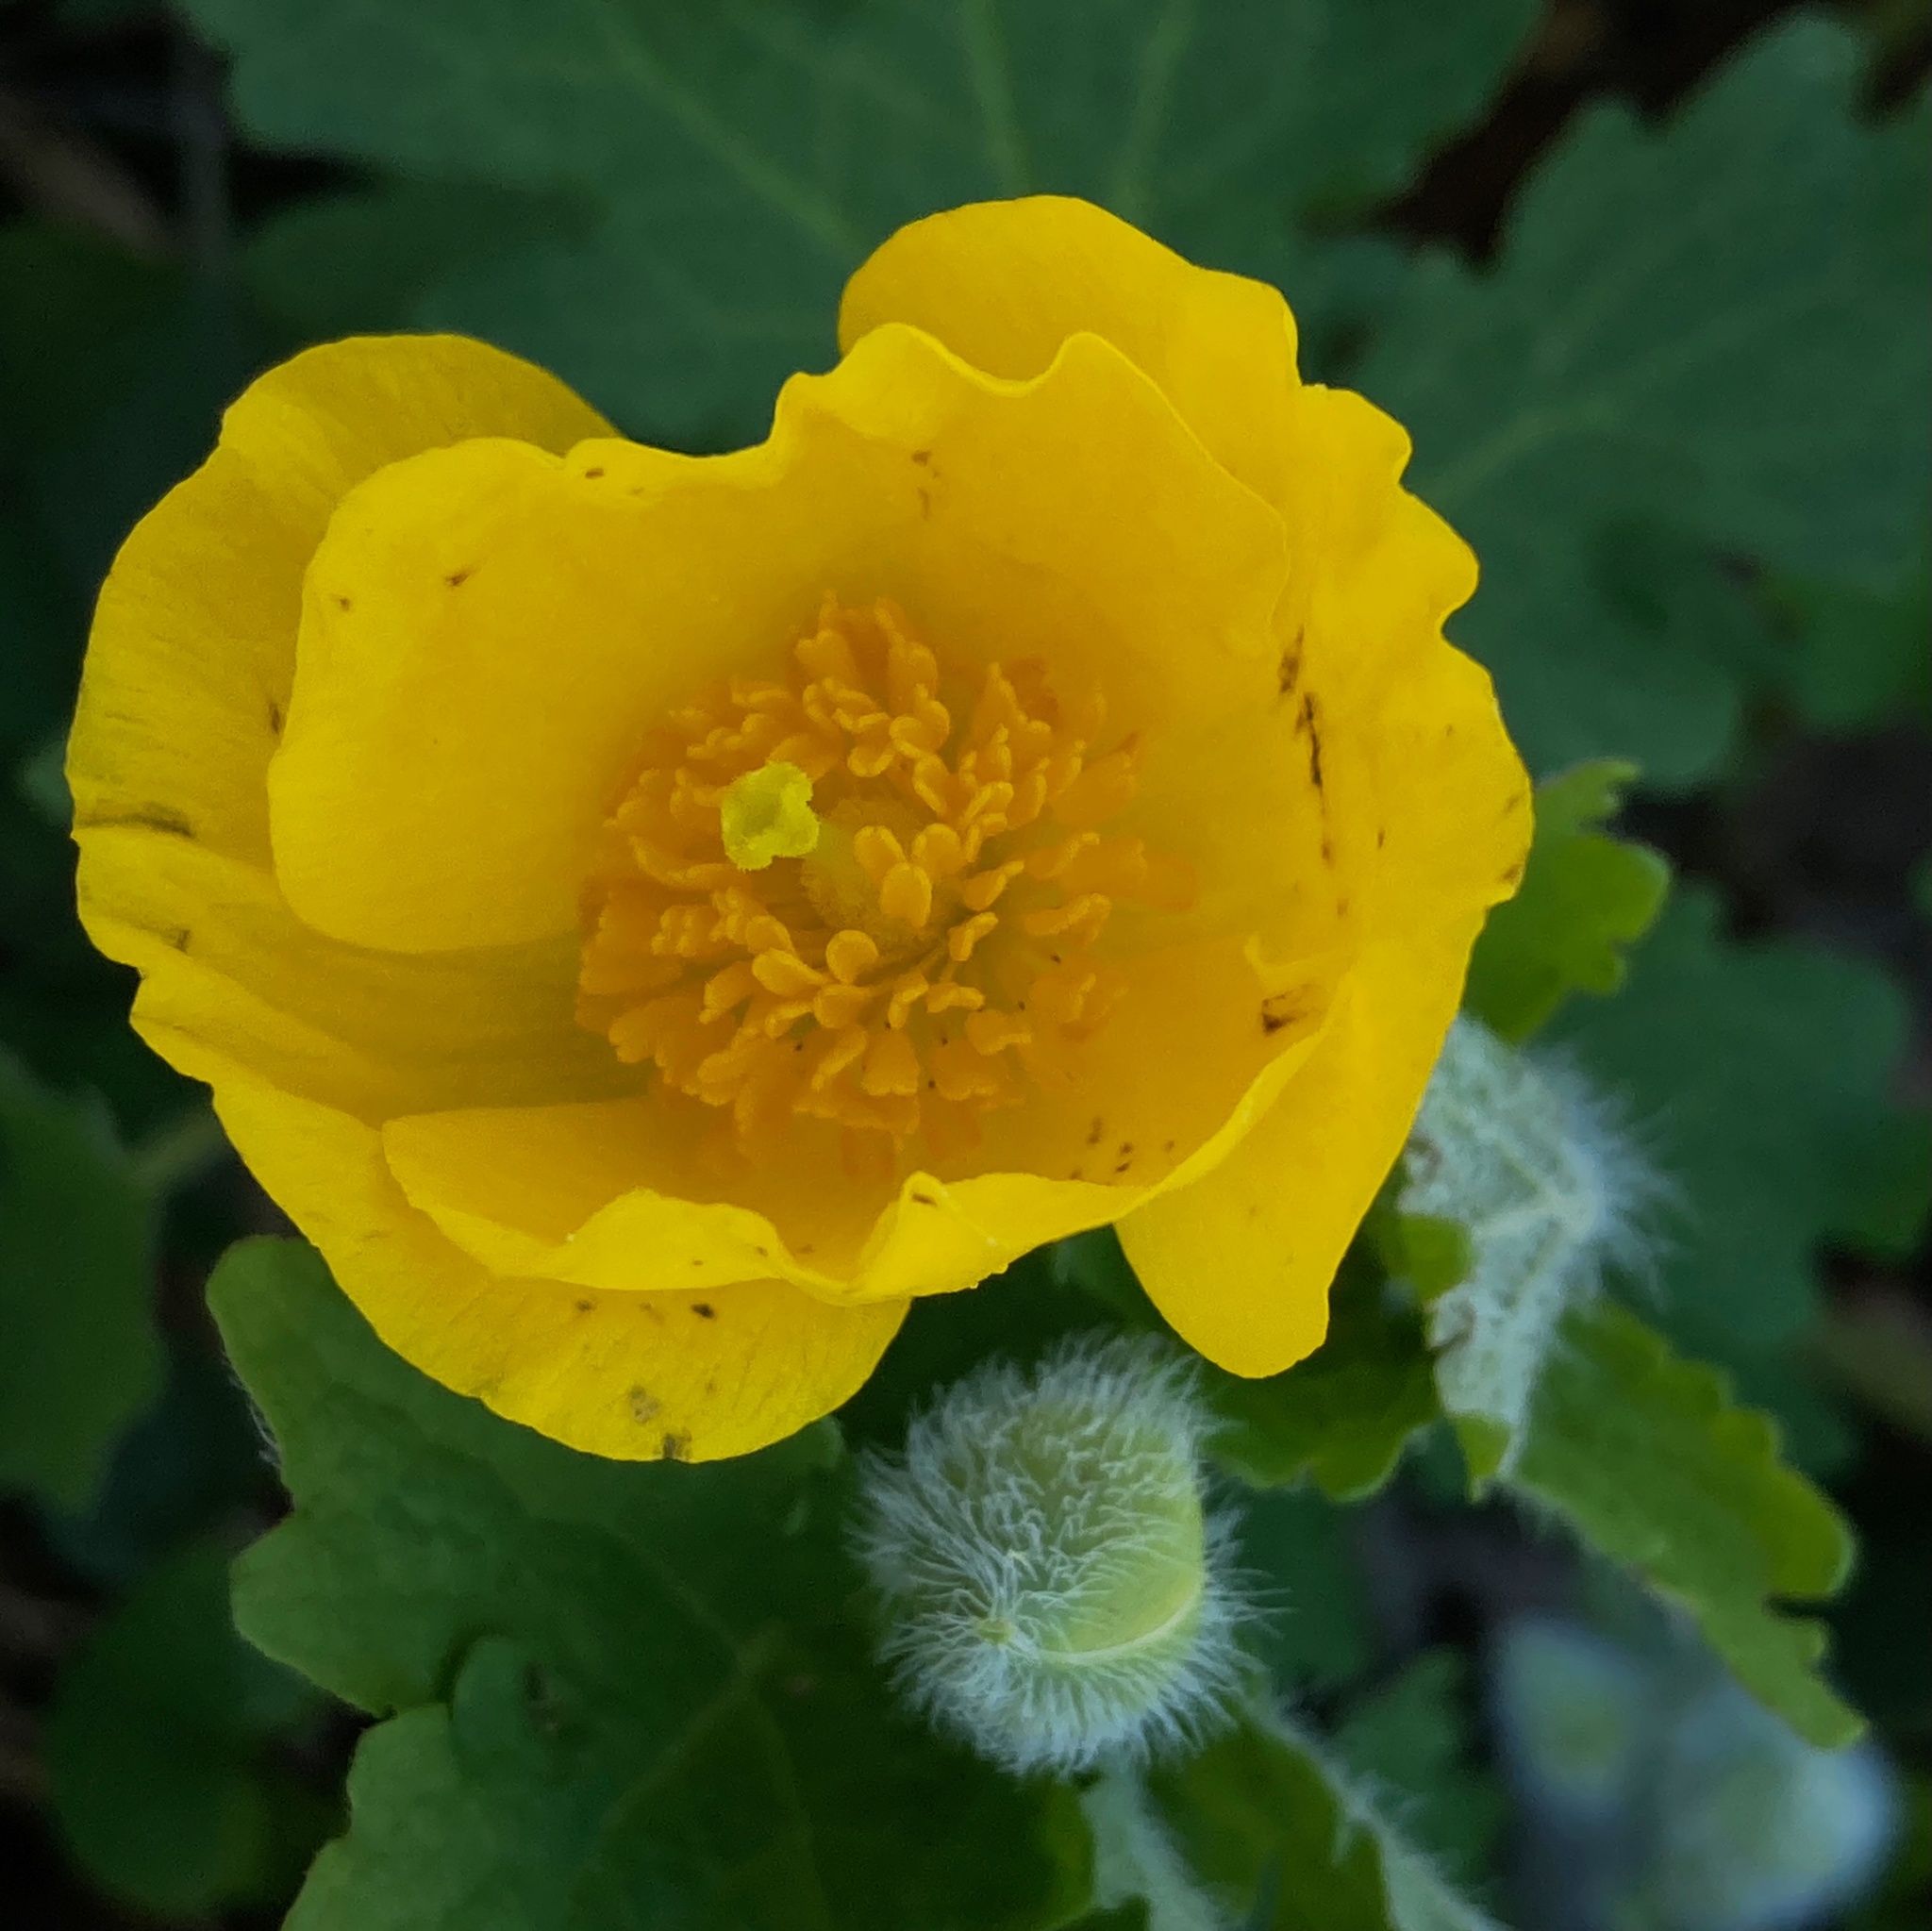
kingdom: Plantae
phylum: Tracheophyta
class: Magnoliopsida
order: Ranunculales
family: Papaveraceae
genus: Stylophorum
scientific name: Stylophorum diphyllum
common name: Celandine poppy
